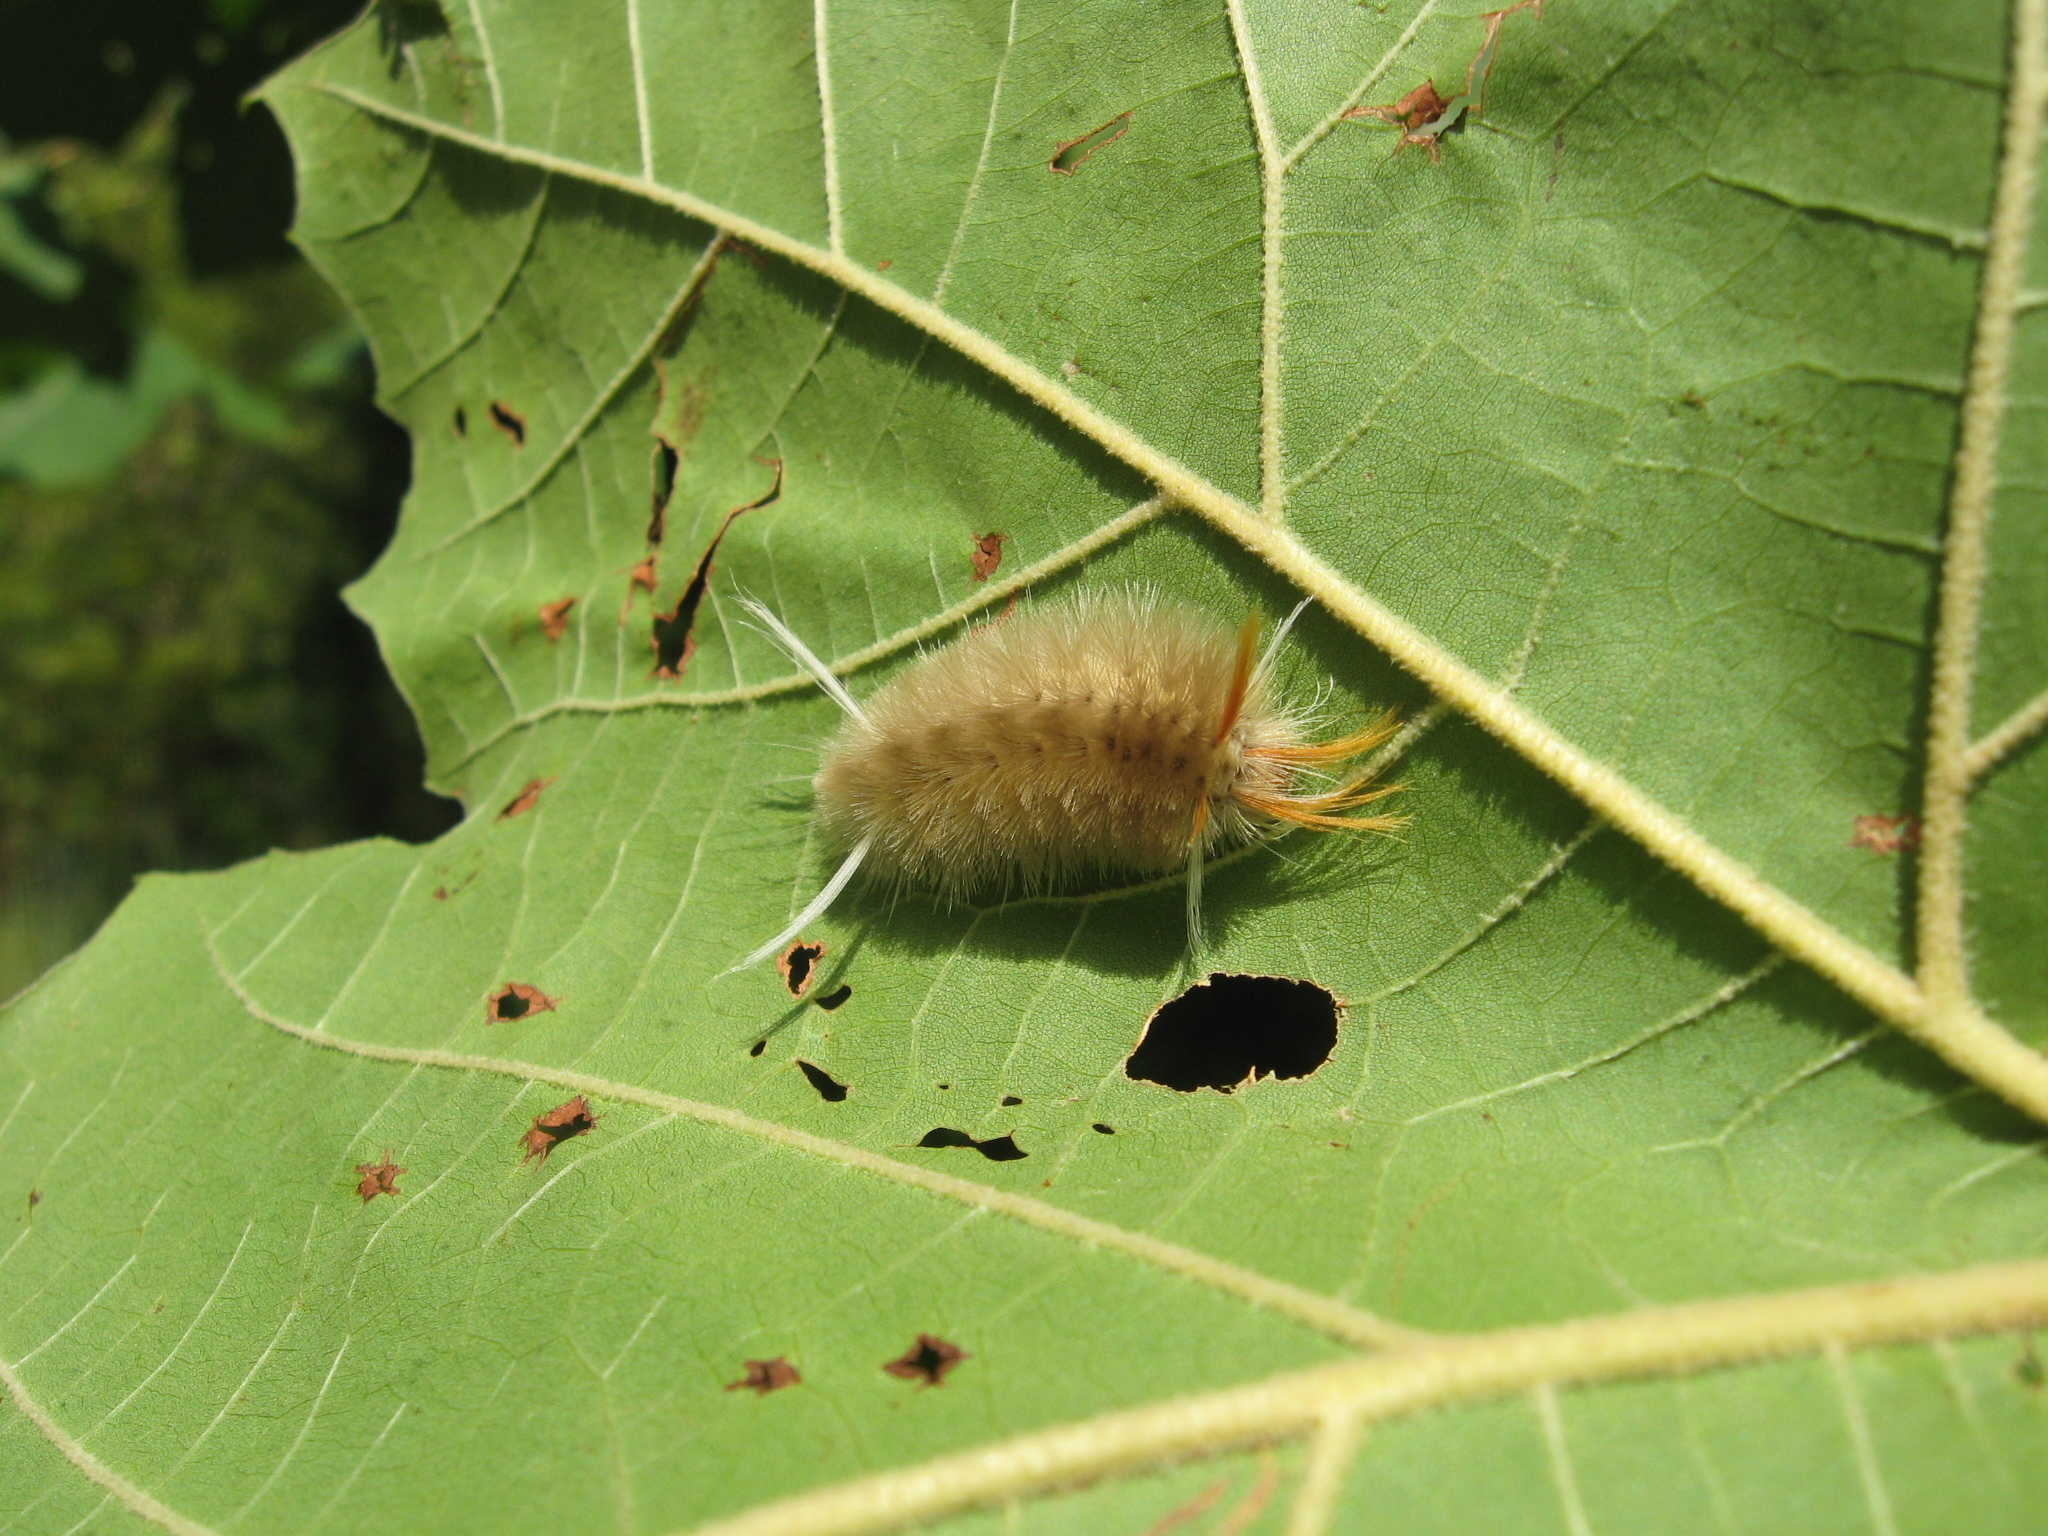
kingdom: Animalia
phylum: Arthropoda
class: Insecta
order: Lepidoptera
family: Erebidae
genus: Halysidota
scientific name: Halysidota harrisii
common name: Sycamore tussock moth
